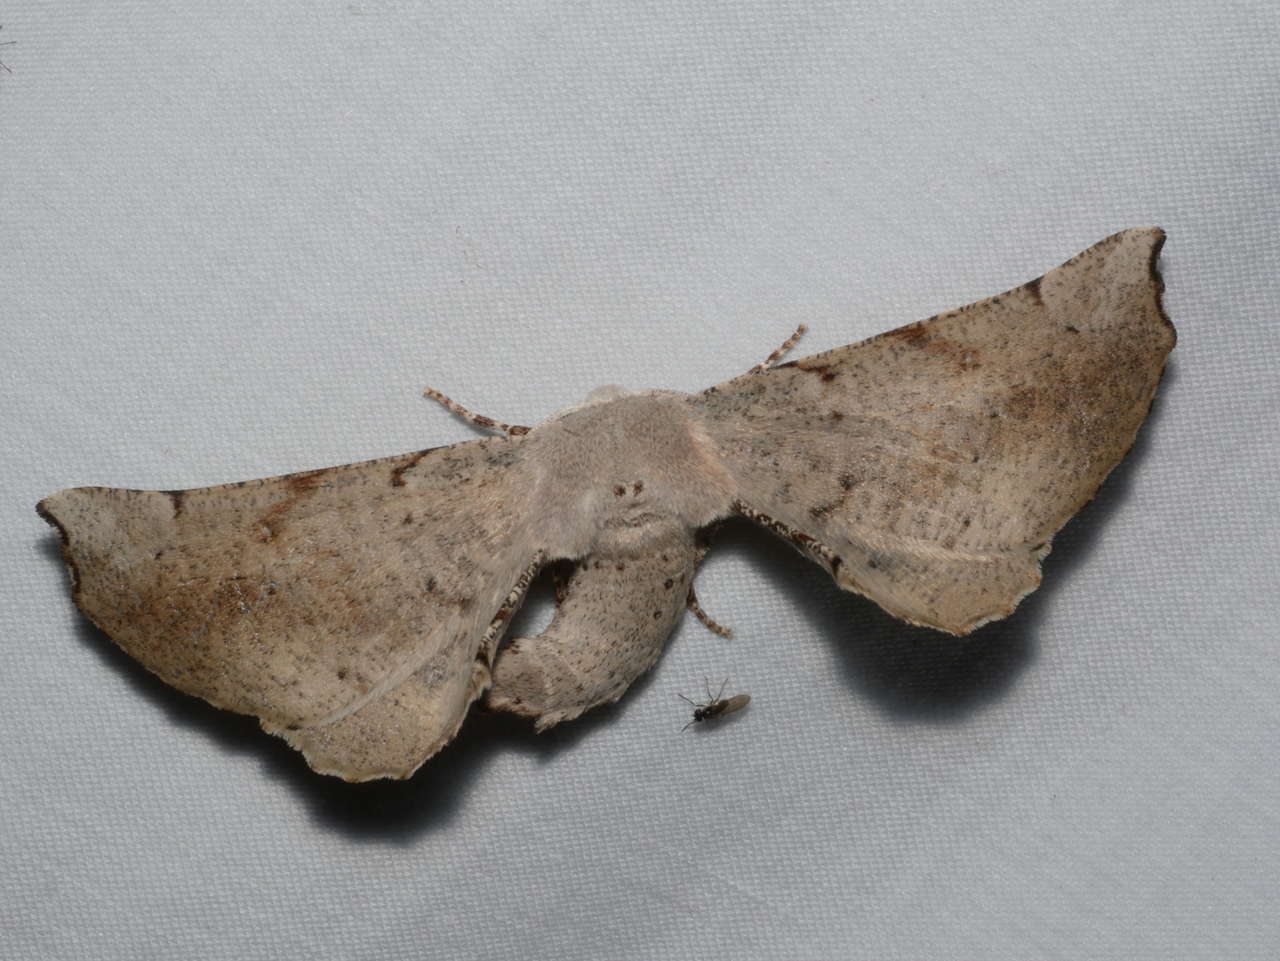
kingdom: Animalia
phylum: Arthropoda
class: Insecta
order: Lepidoptera
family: Geometridae
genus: Circopetes
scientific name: Circopetes obtusata
